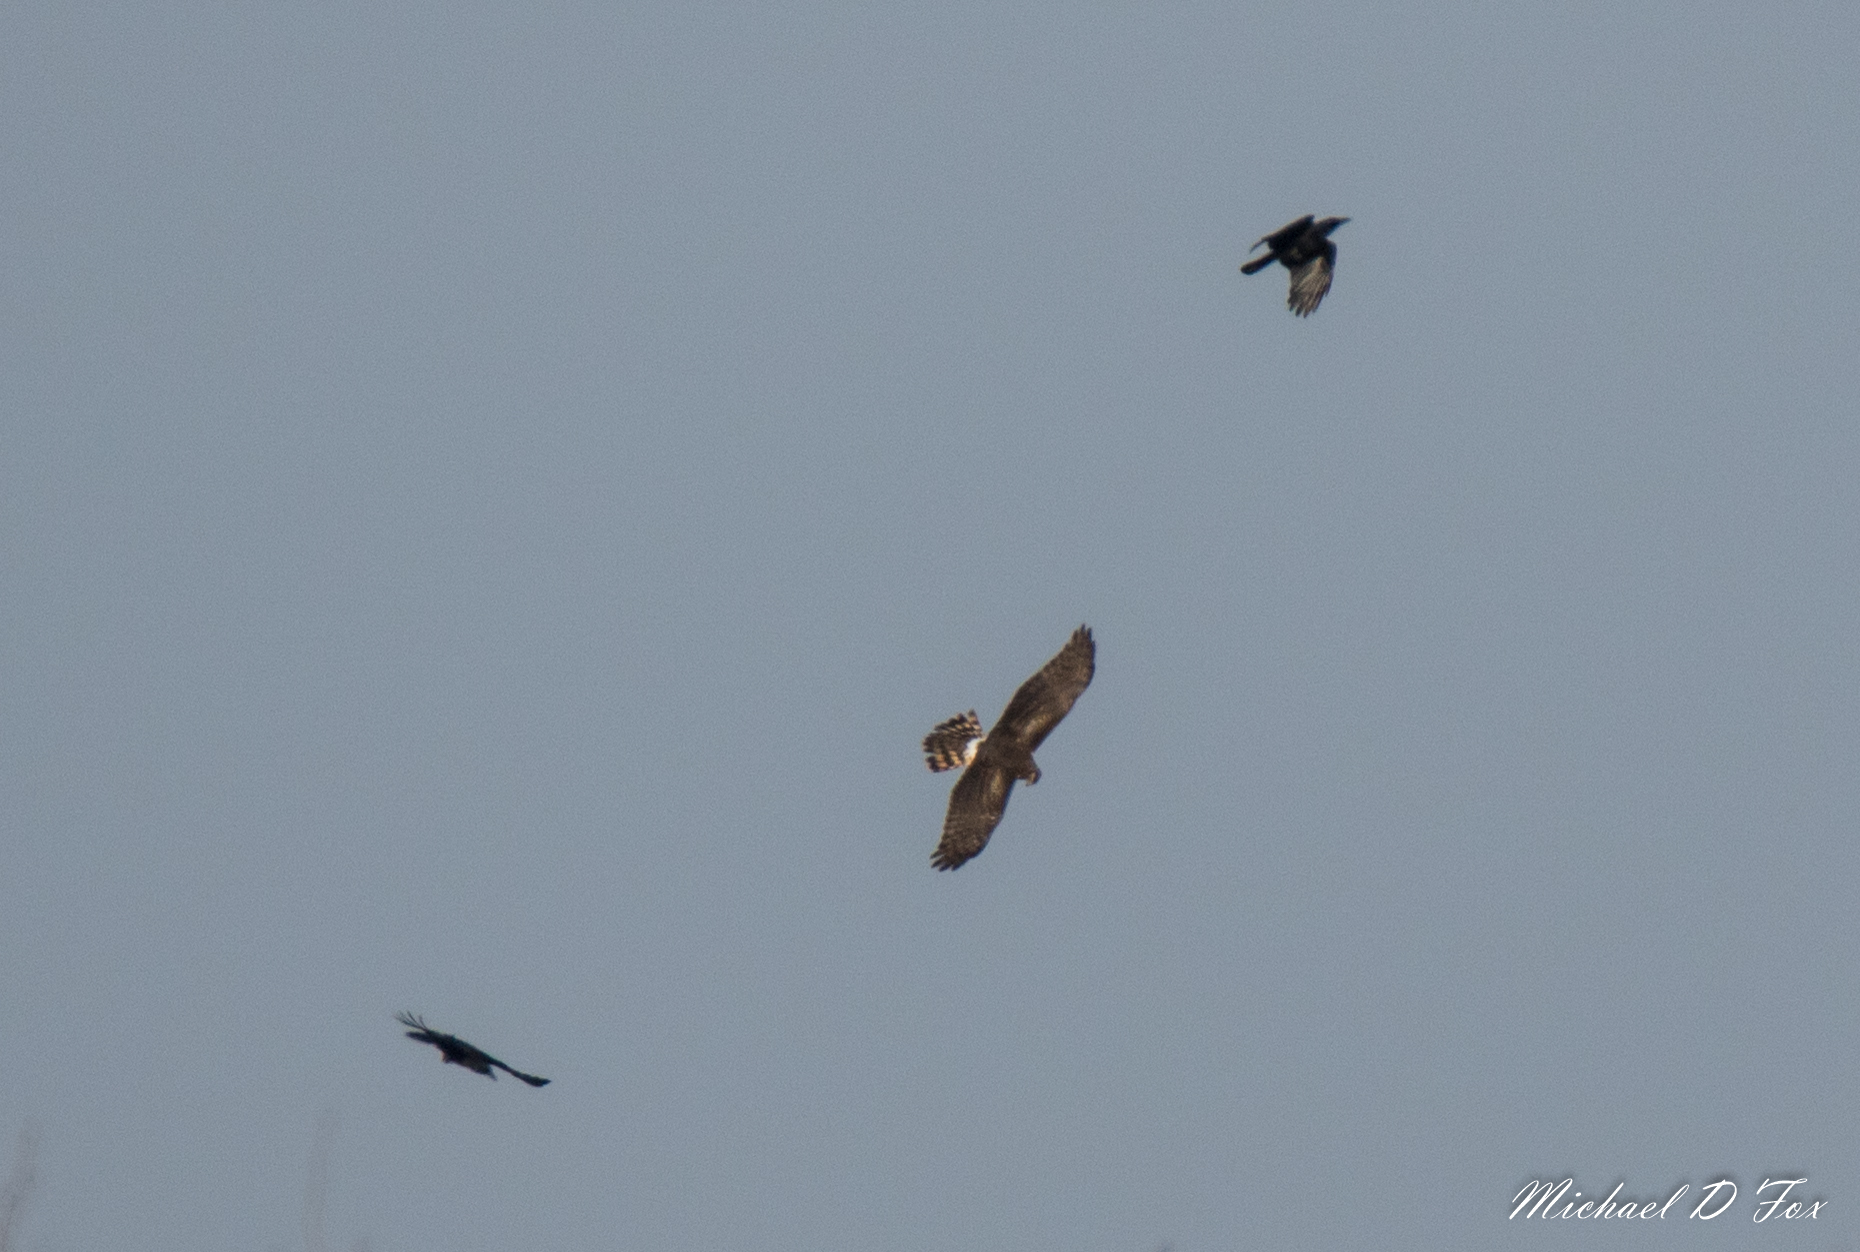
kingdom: Animalia
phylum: Chordata
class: Aves
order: Accipitriformes
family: Accipitridae
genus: Circus
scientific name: Circus cyaneus
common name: Hen harrier
